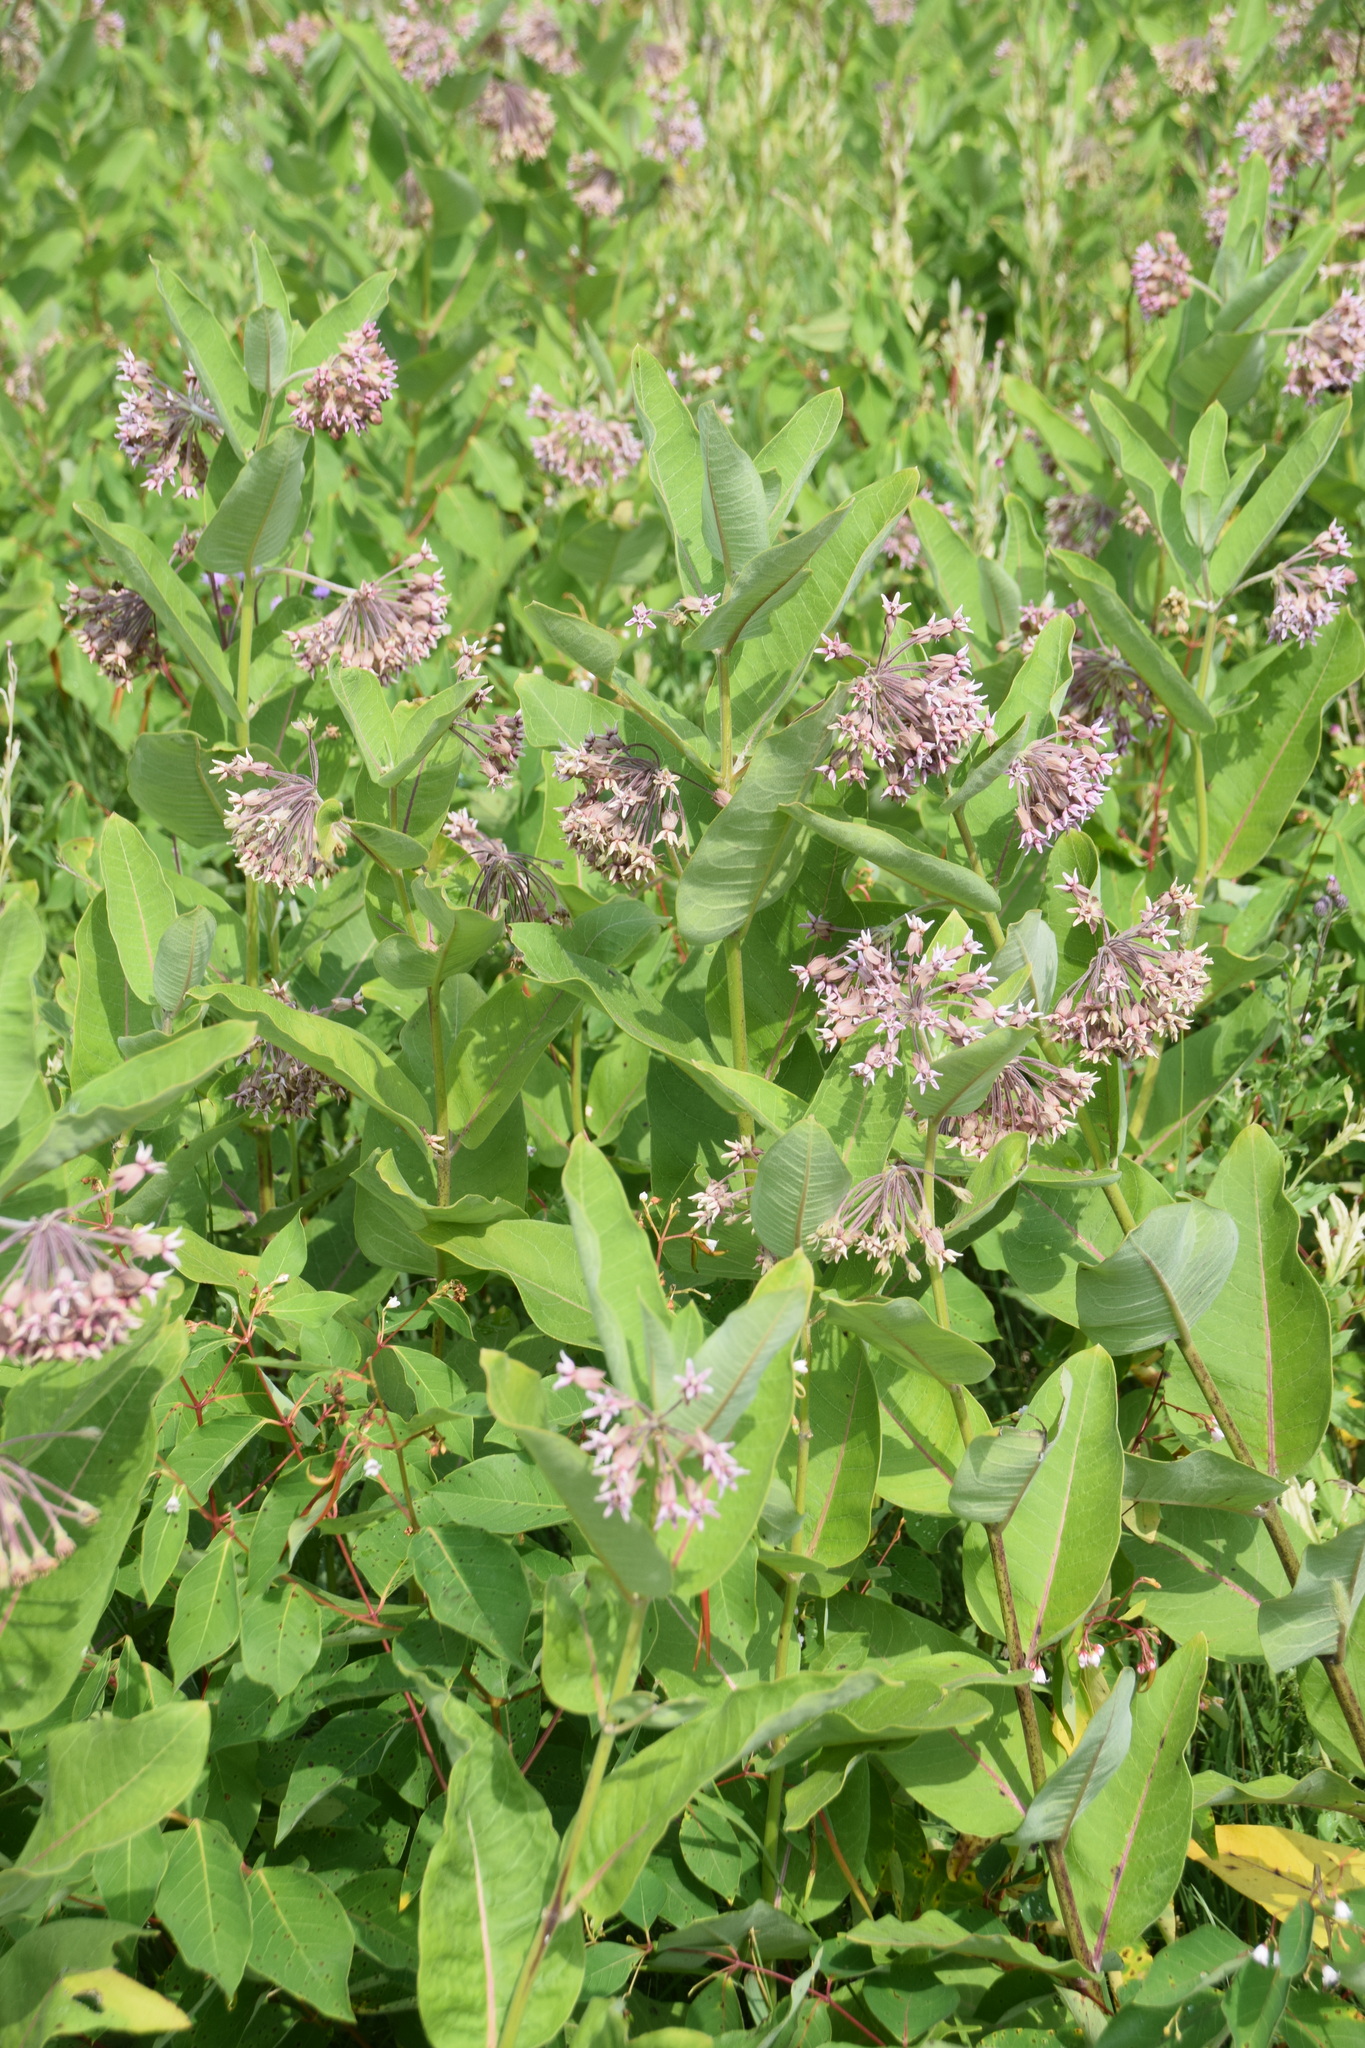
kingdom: Plantae
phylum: Tracheophyta
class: Magnoliopsida
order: Gentianales
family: Apocynaceae
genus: Asclepias
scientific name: Asclepias syriaca
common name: Common milkweed
